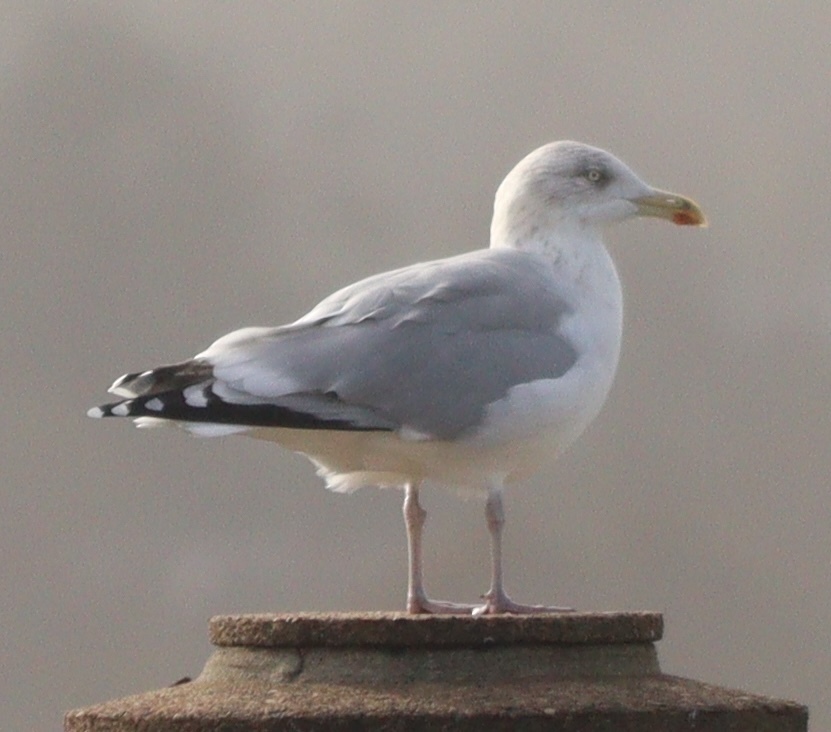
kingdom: Animalia
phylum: Chordata
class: Aves
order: Charadriiformes
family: Laridae
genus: Larus
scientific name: Larus argentatus
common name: Herring gull
